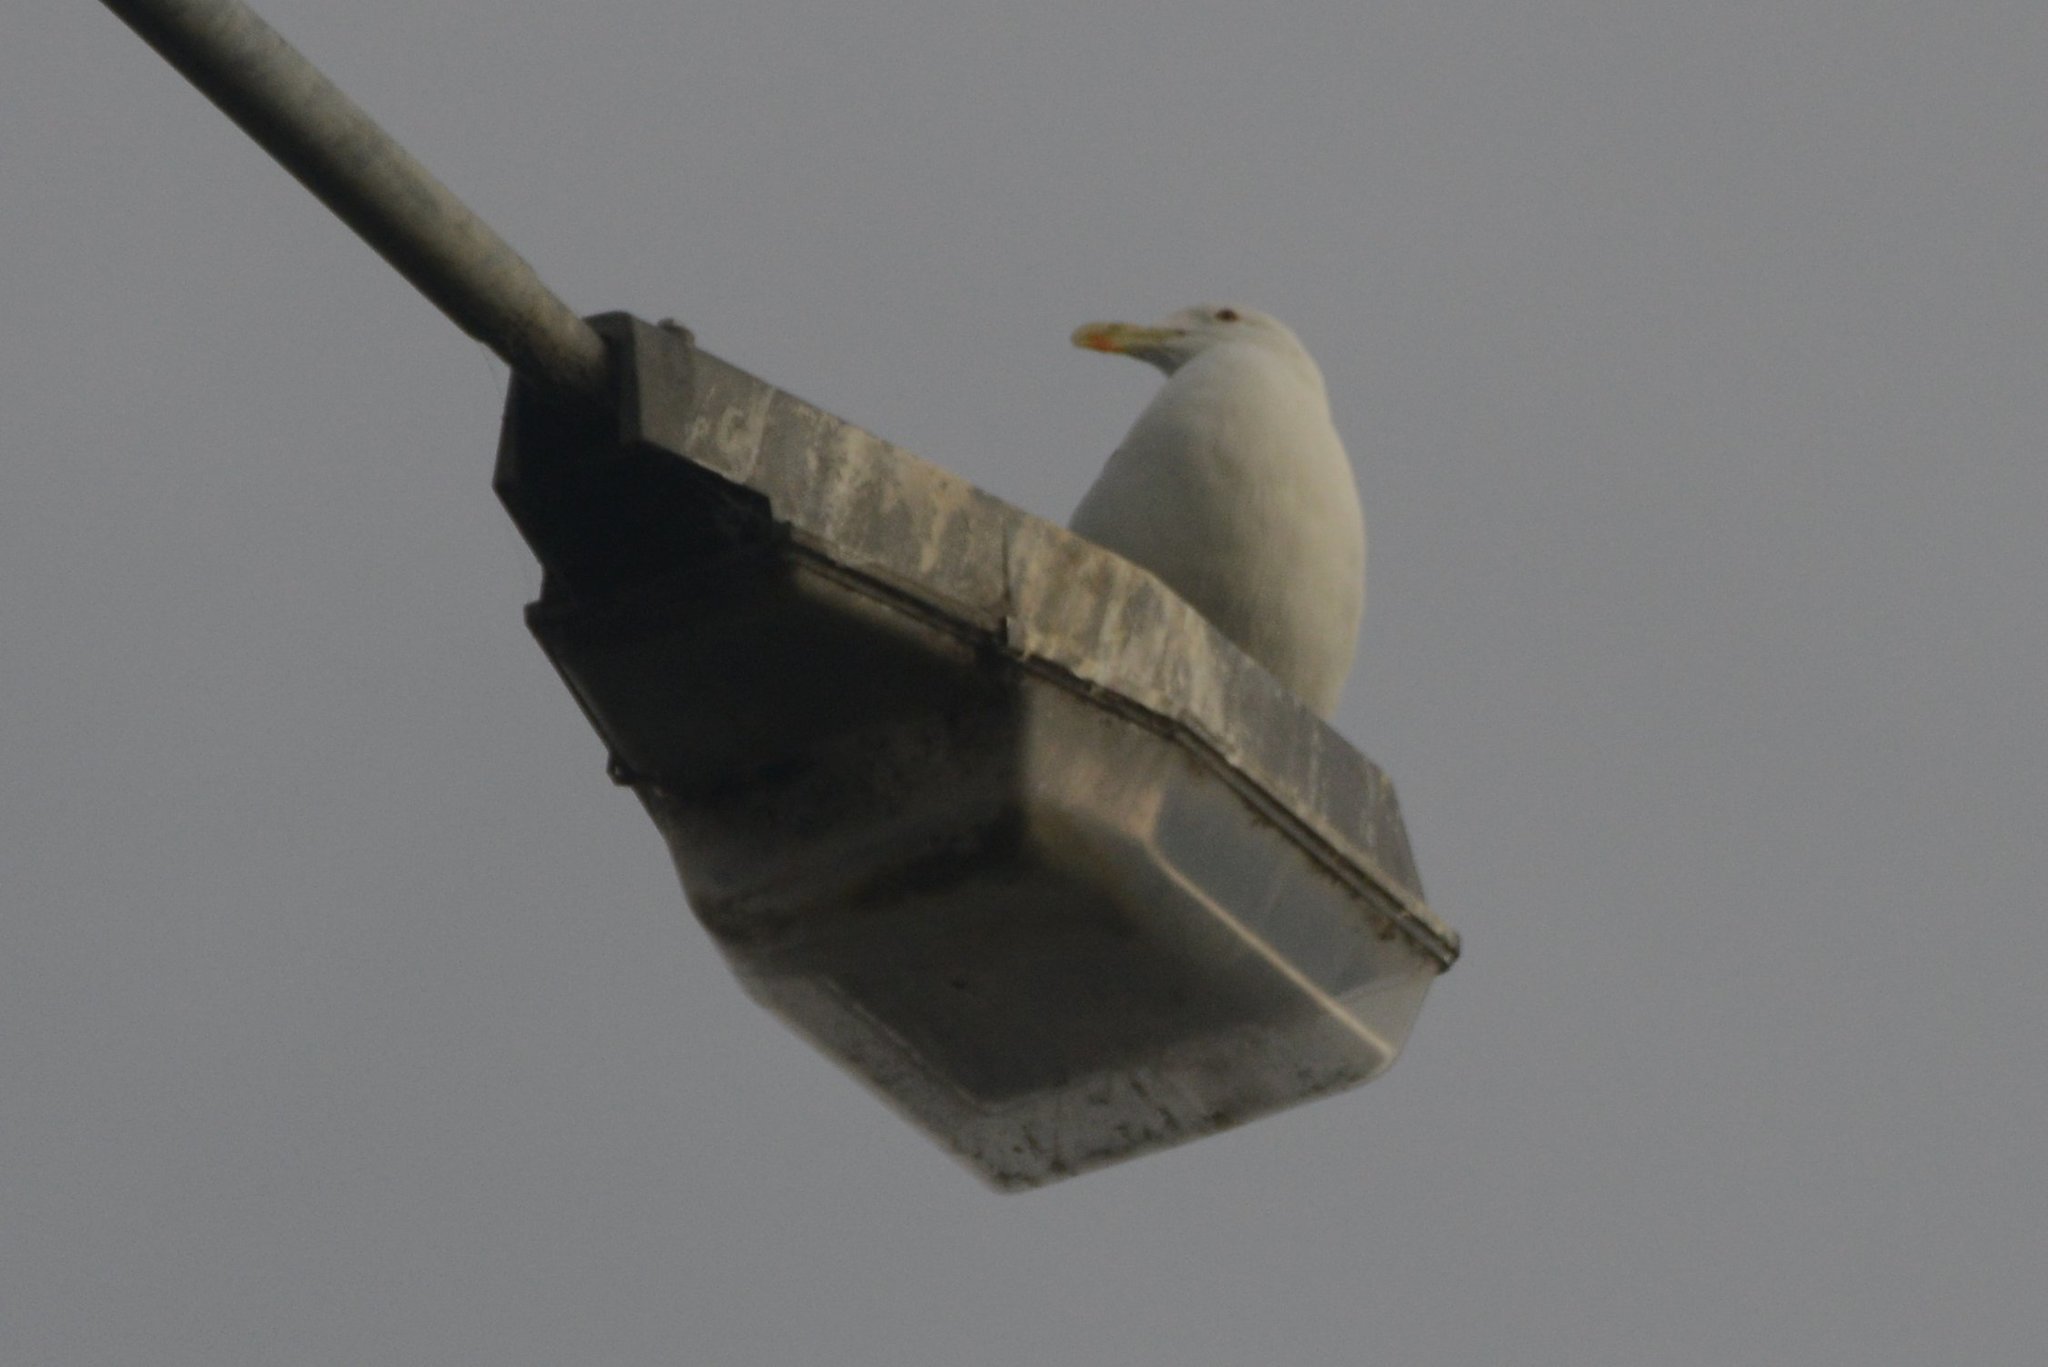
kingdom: Animalia
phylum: Chordata
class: Aves
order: Charadriiformes
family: Laridae
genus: Larus
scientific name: Larus dominicanus
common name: Kelp gull
